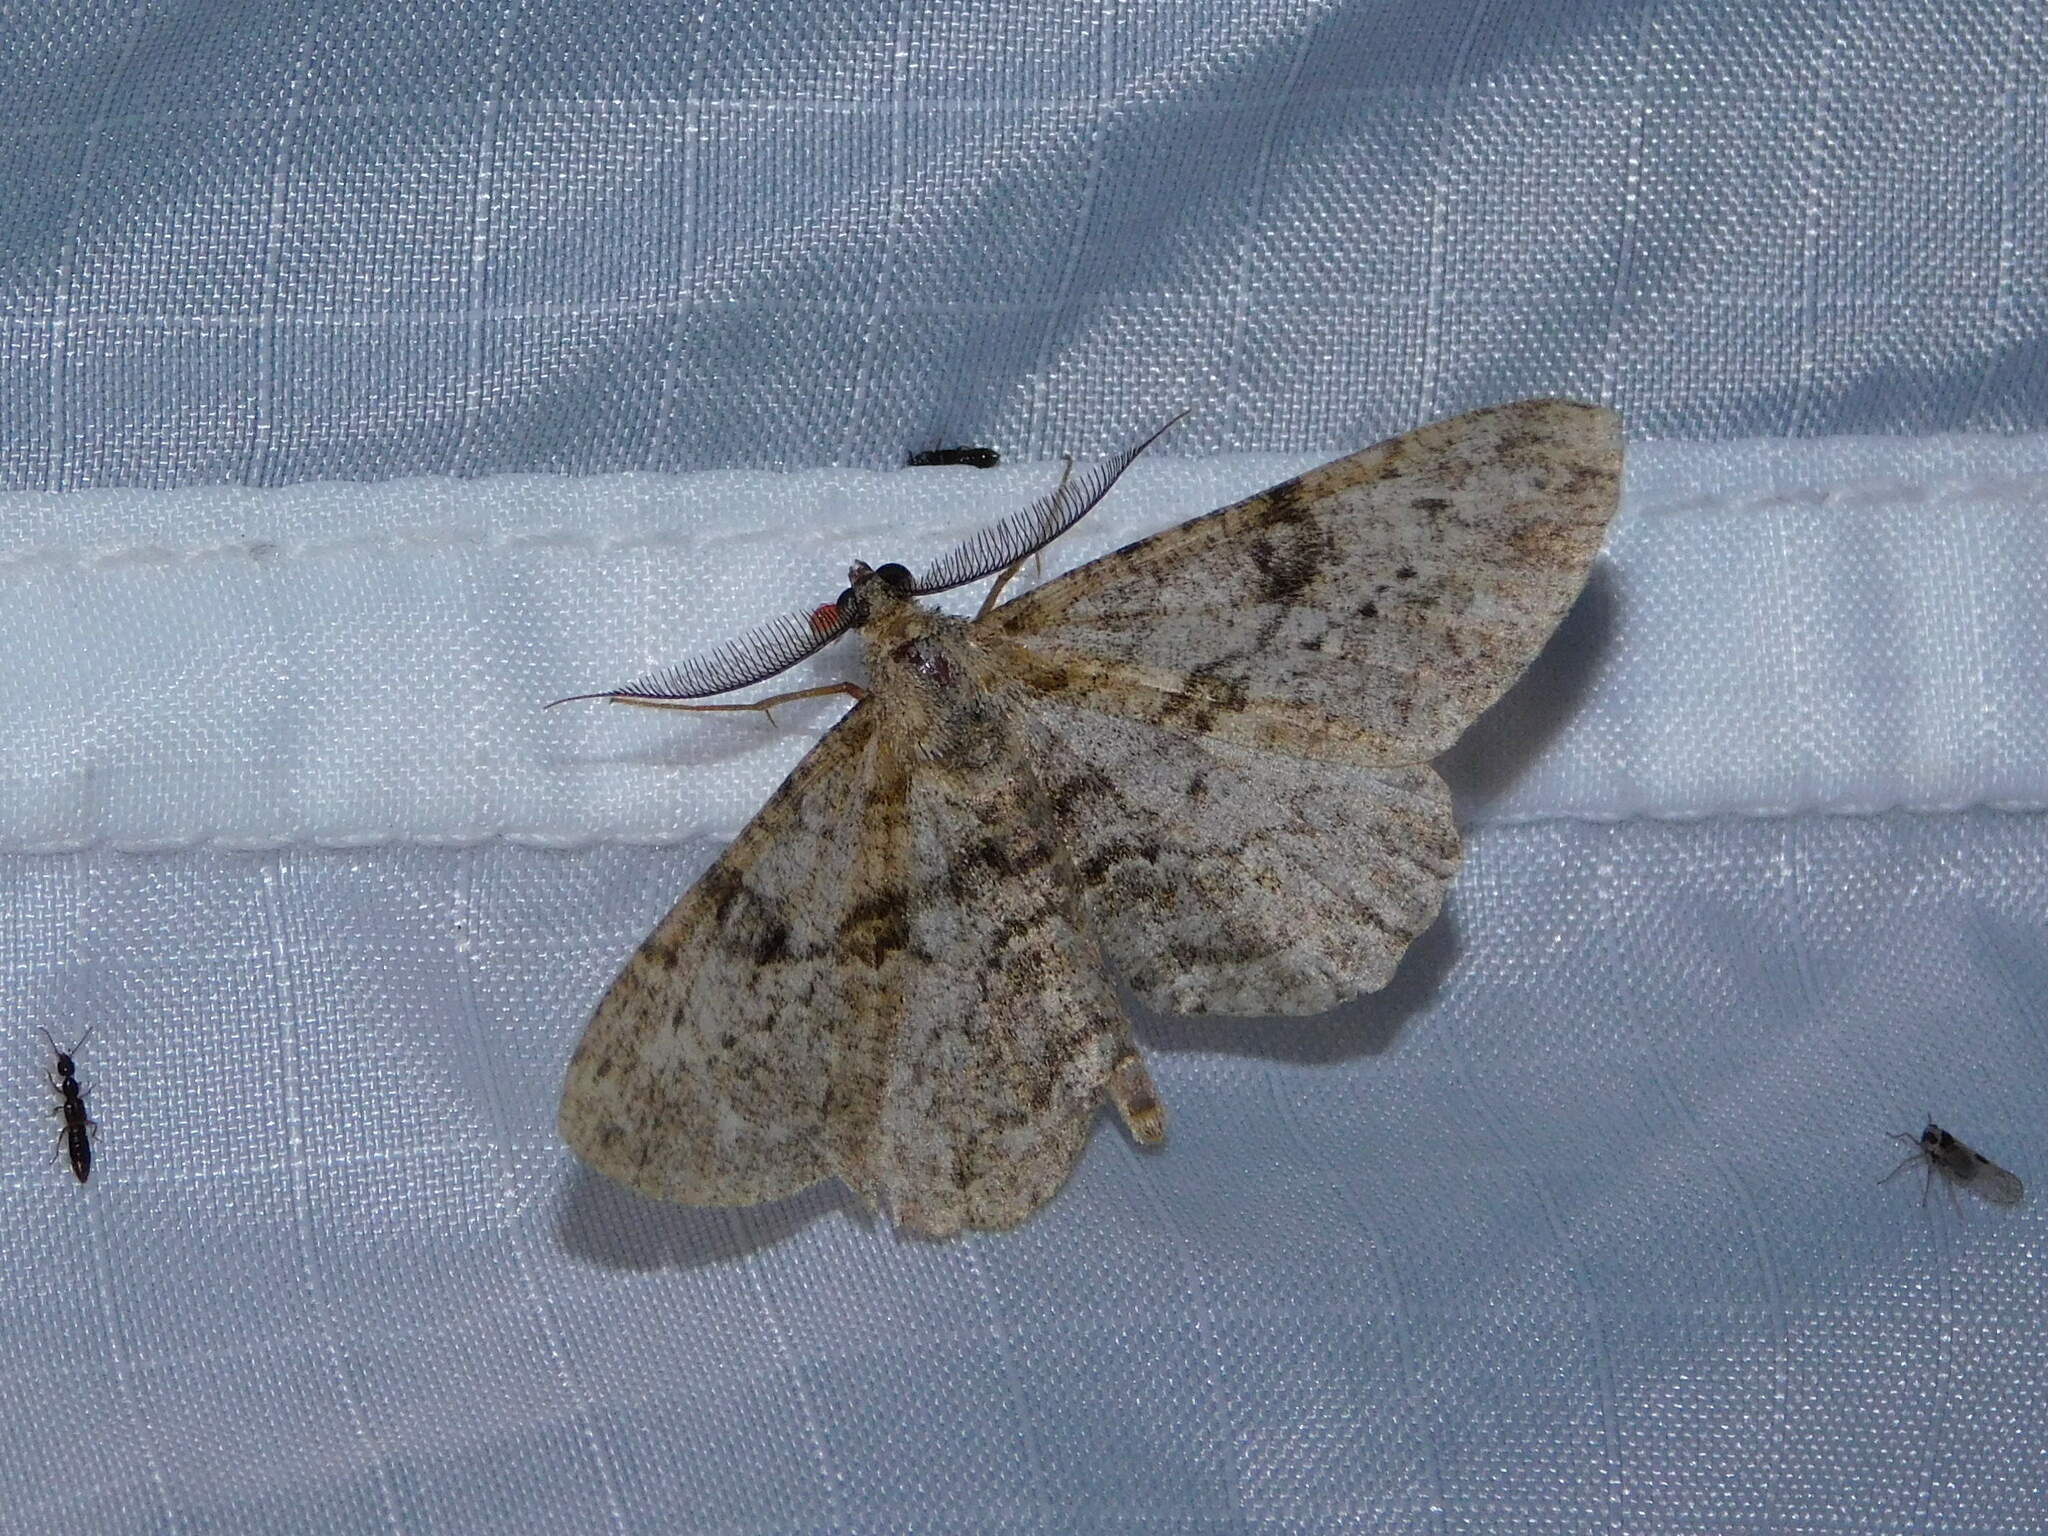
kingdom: Animalia
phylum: Arthropoda
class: Insecta
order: Lepidoptera
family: Geometridae
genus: Peribatodes
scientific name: Peribatodes rhomboidaria
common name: Willow beauty
